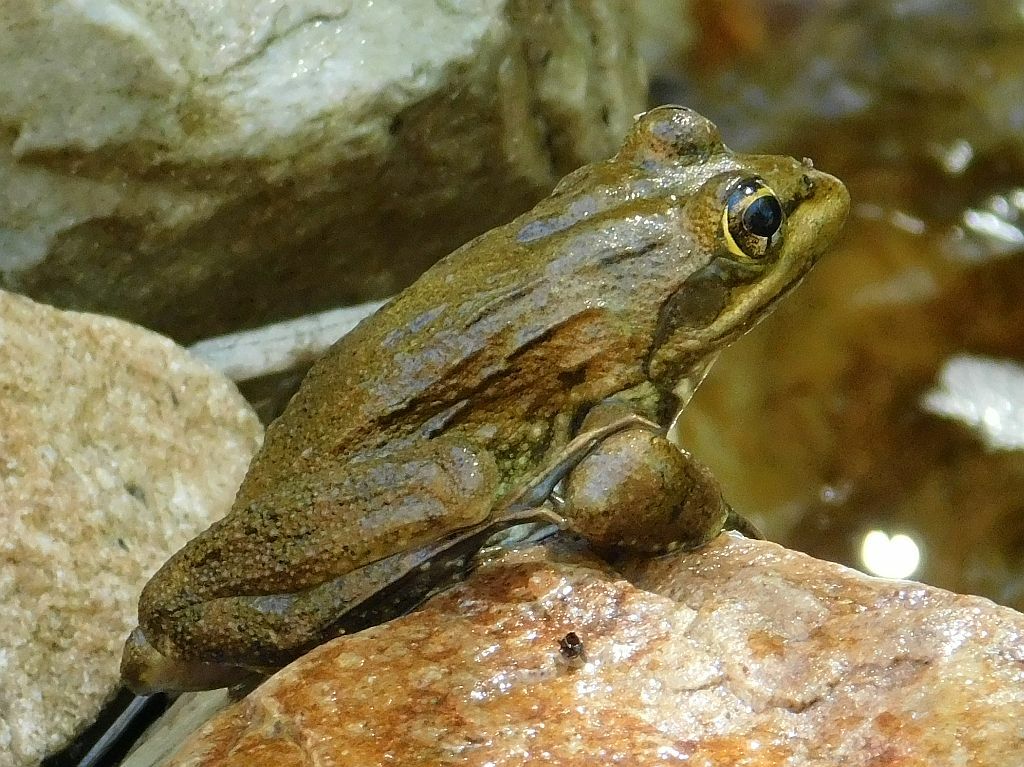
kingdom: Animalia
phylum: Chordata
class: Amphibia
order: Anura
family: Pyxicephalidae
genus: Amietia
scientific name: Amietia fuscigula
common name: Cape rana
